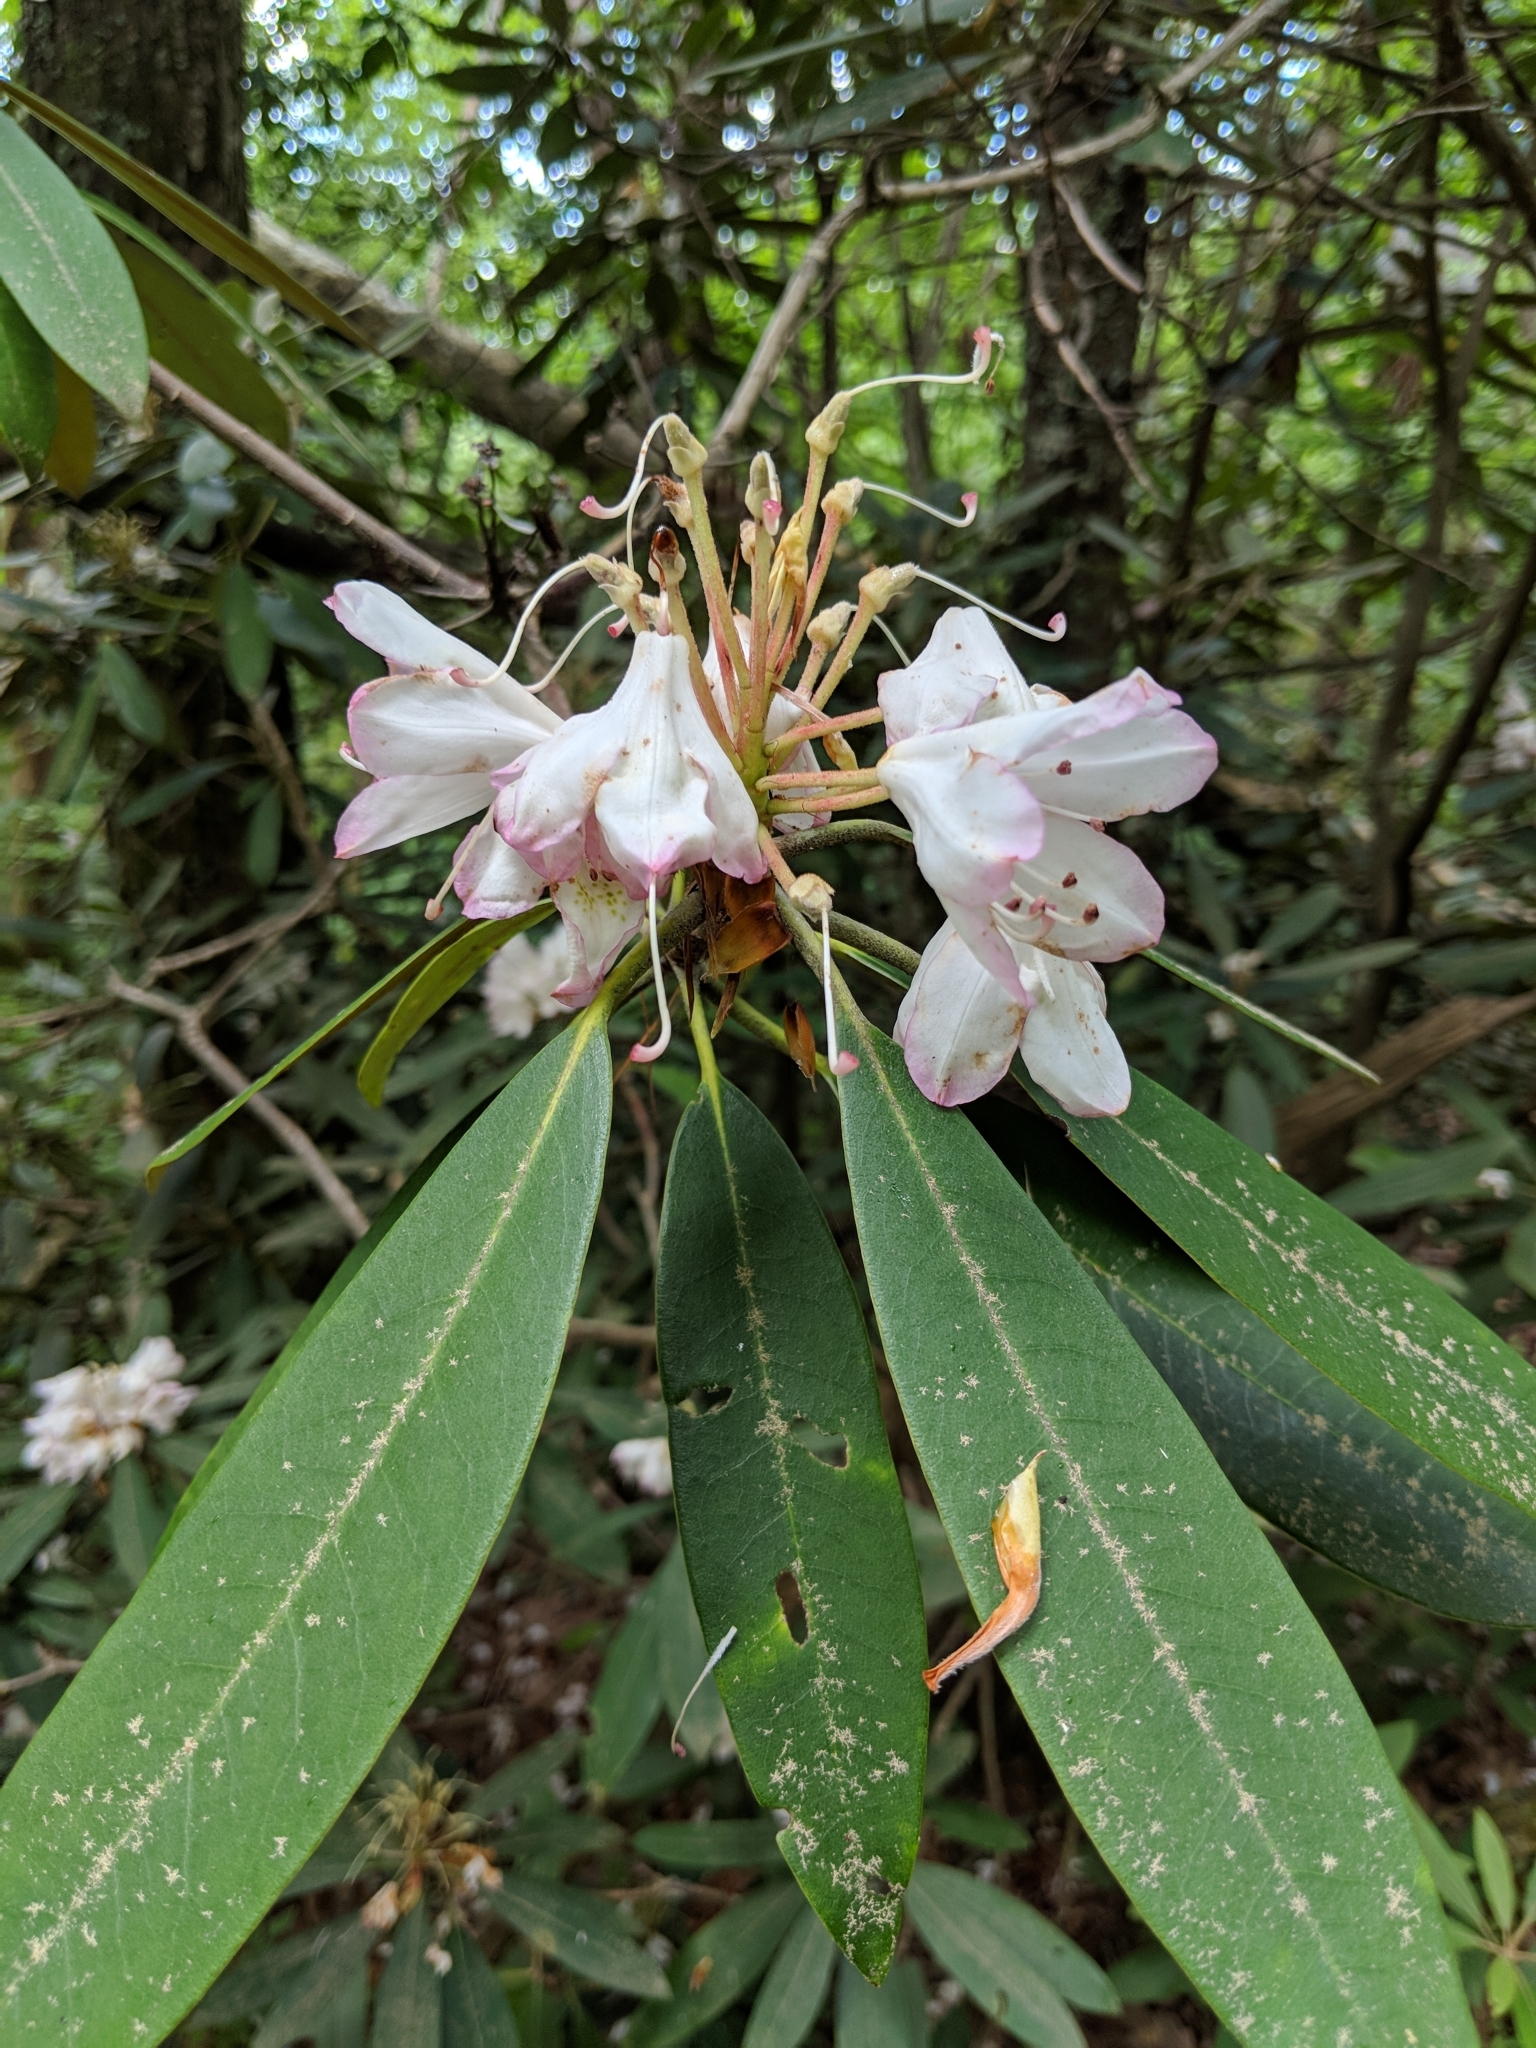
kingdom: Plantae
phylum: Tracheophyta
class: Magnoliopsida
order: Ericales
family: Ericaceae
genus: Rhododendron
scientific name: Rhododendron maximum
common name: Great rhododendron
